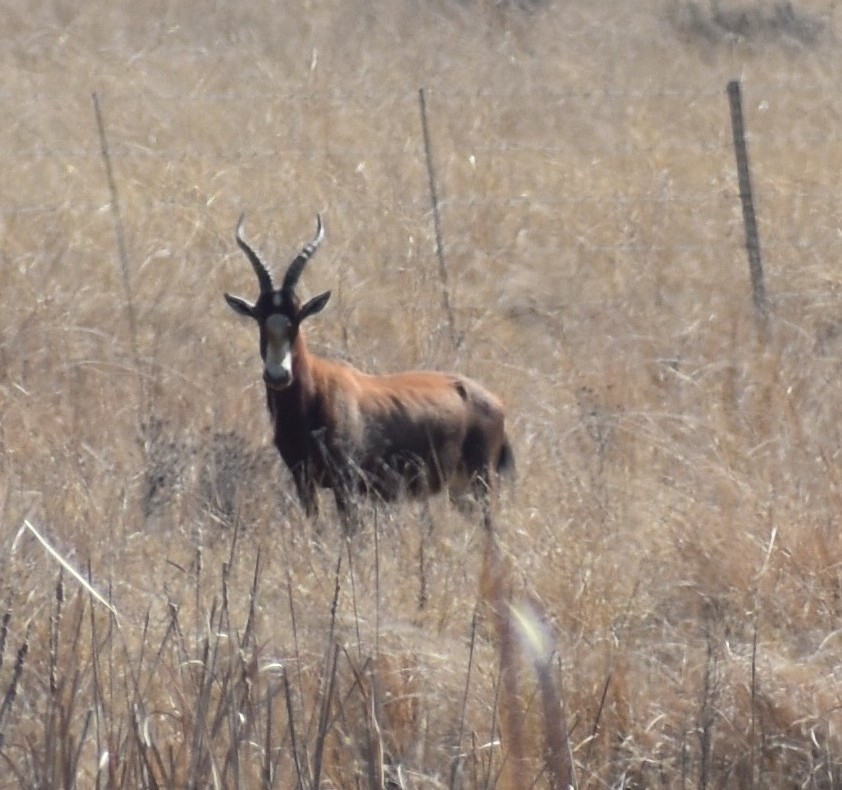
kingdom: Animalia
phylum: Chordata
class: Mammalia
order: Artiodactyla
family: Bovidae
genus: Damaliscus
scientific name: Damaliscus pygargus
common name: Bontebok
